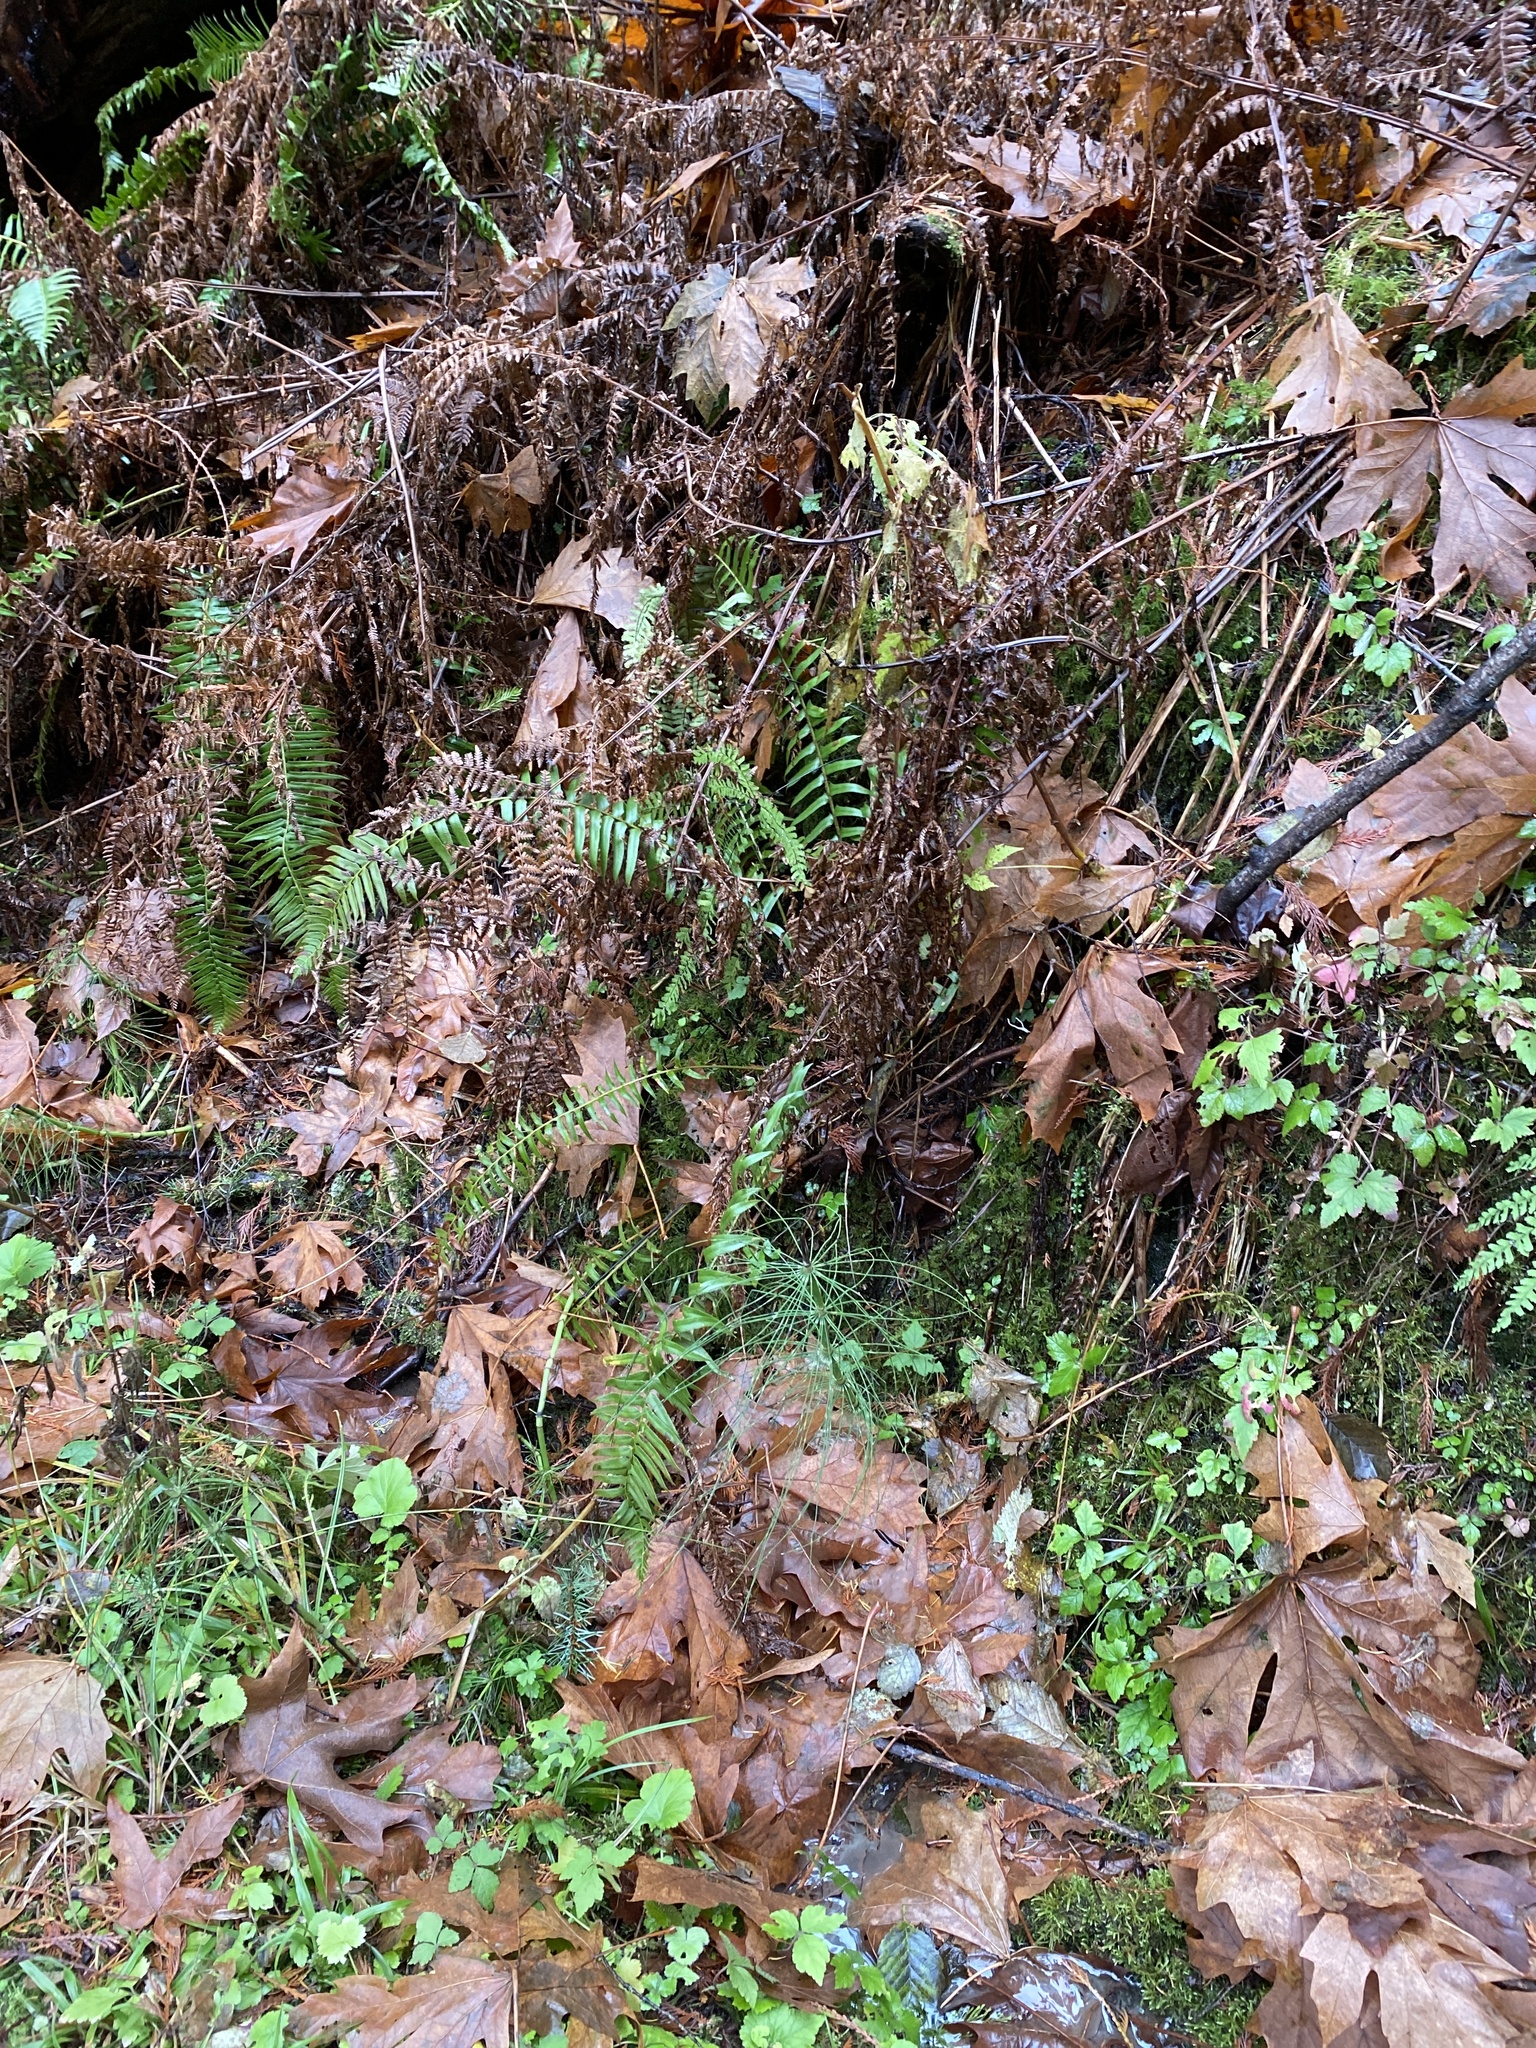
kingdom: Plantae
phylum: Tracheophyta
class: Polypodiopsida
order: Equisetales
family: Equisetaceae
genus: Equisetum
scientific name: Equisetum braunii
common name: Braun's horsetail
